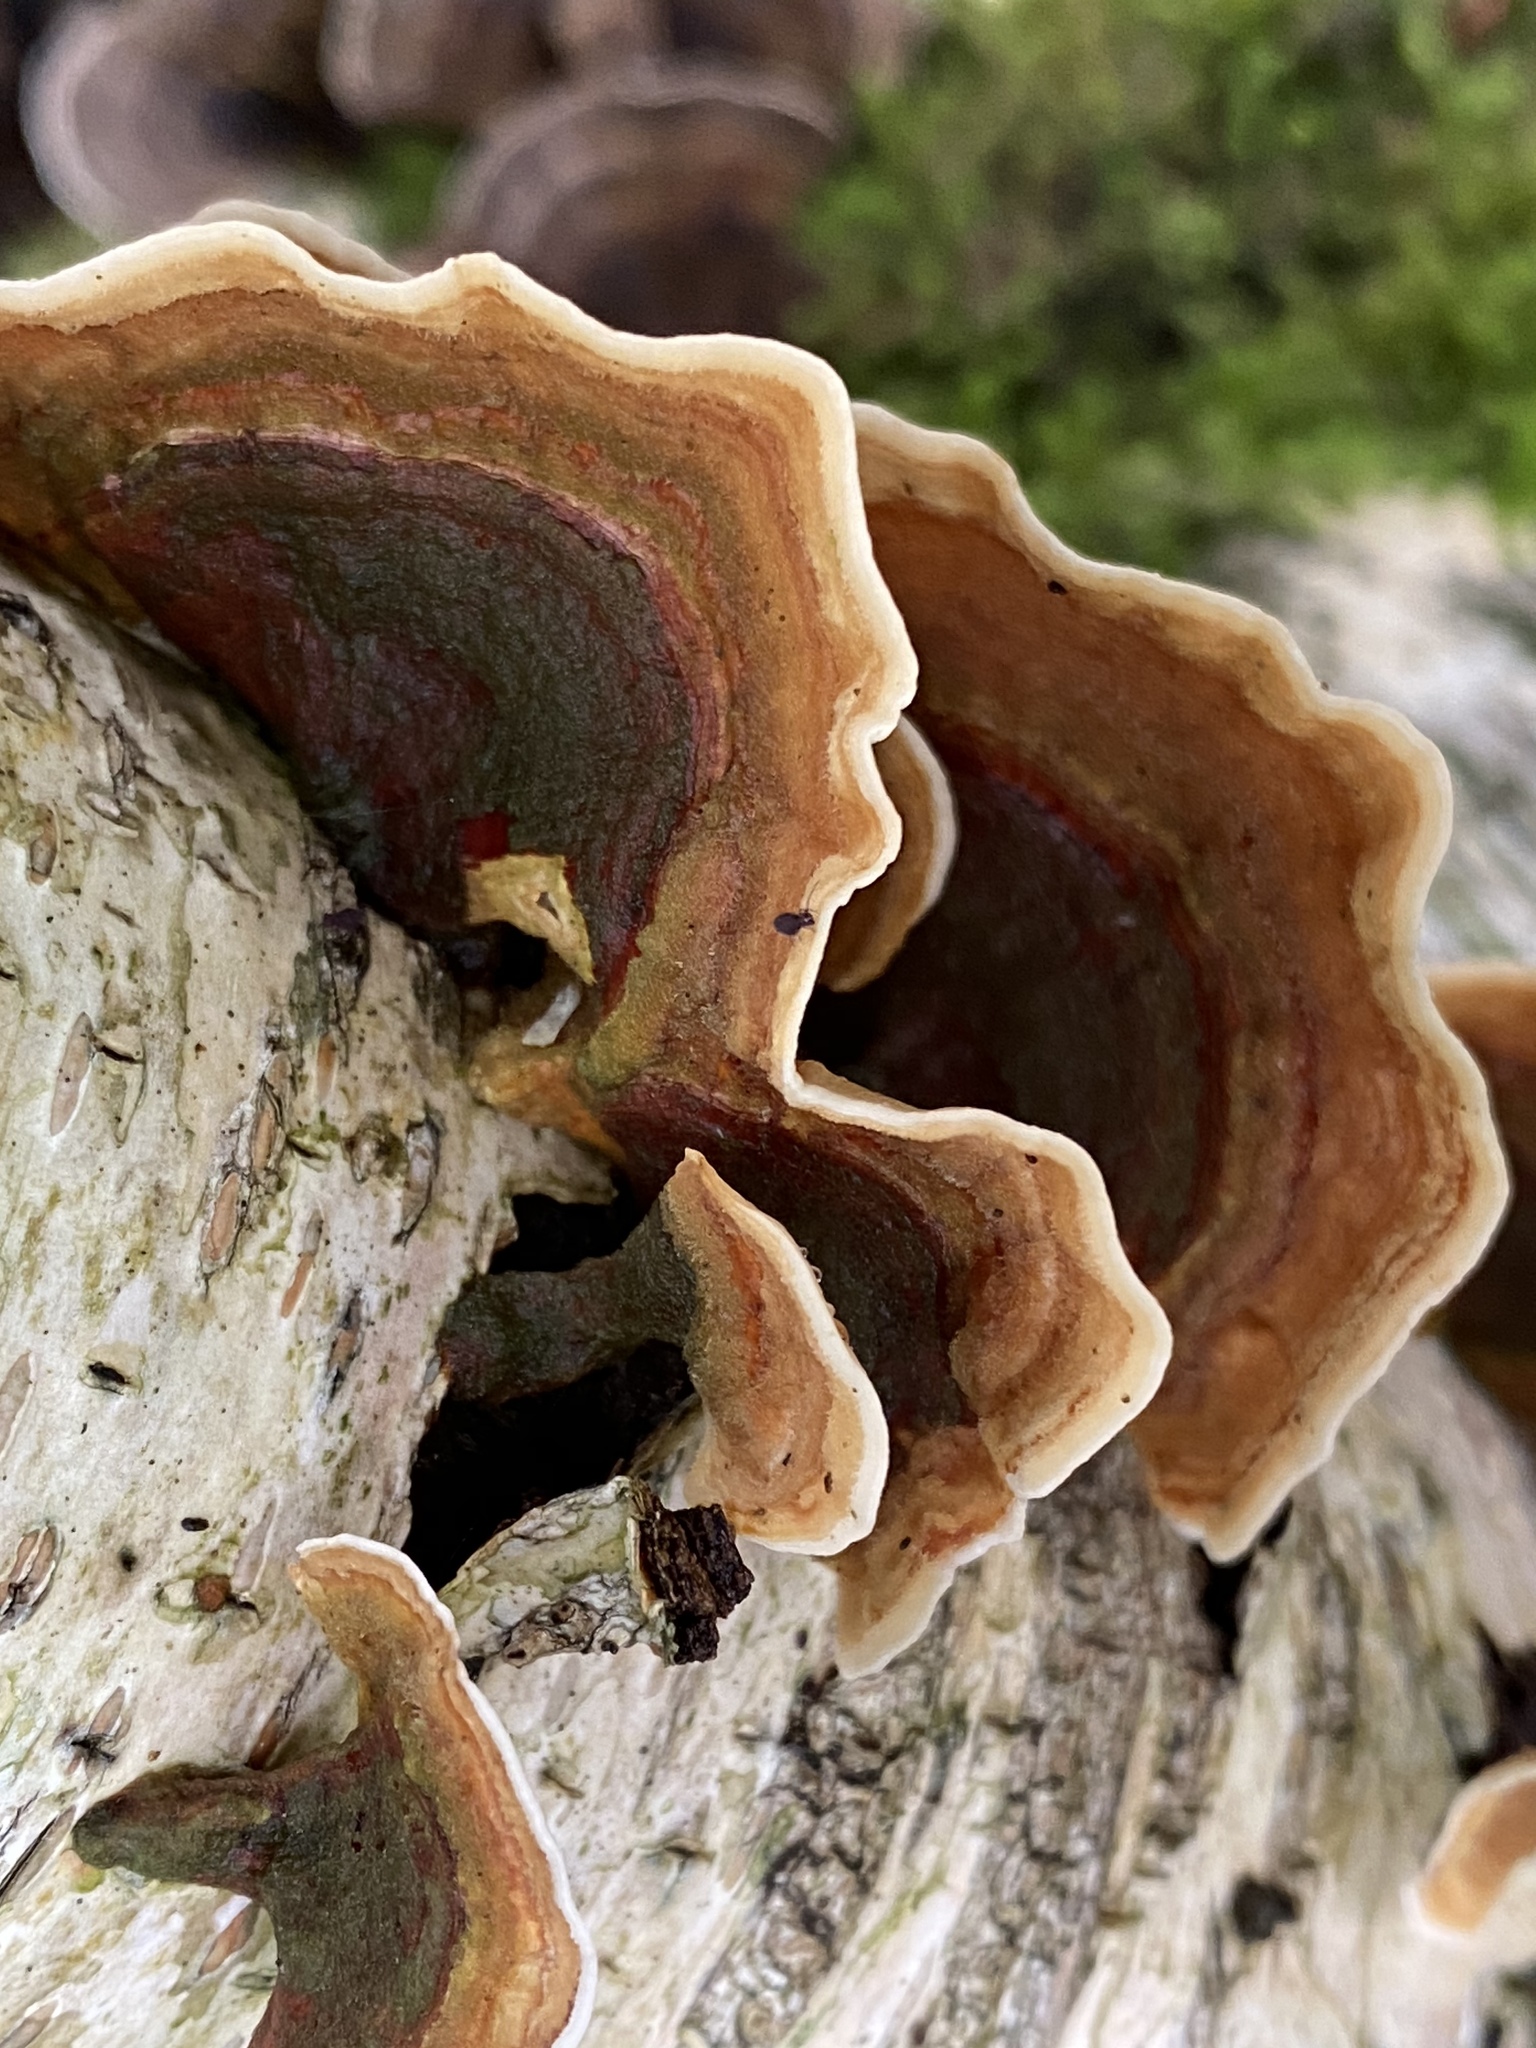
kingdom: Fungi
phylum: Basidiomycota
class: Agaricomycetes
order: Russulales
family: Stereaceae
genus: Stereum
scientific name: Stereum subtomentosum
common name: Yellowing curtain crust
